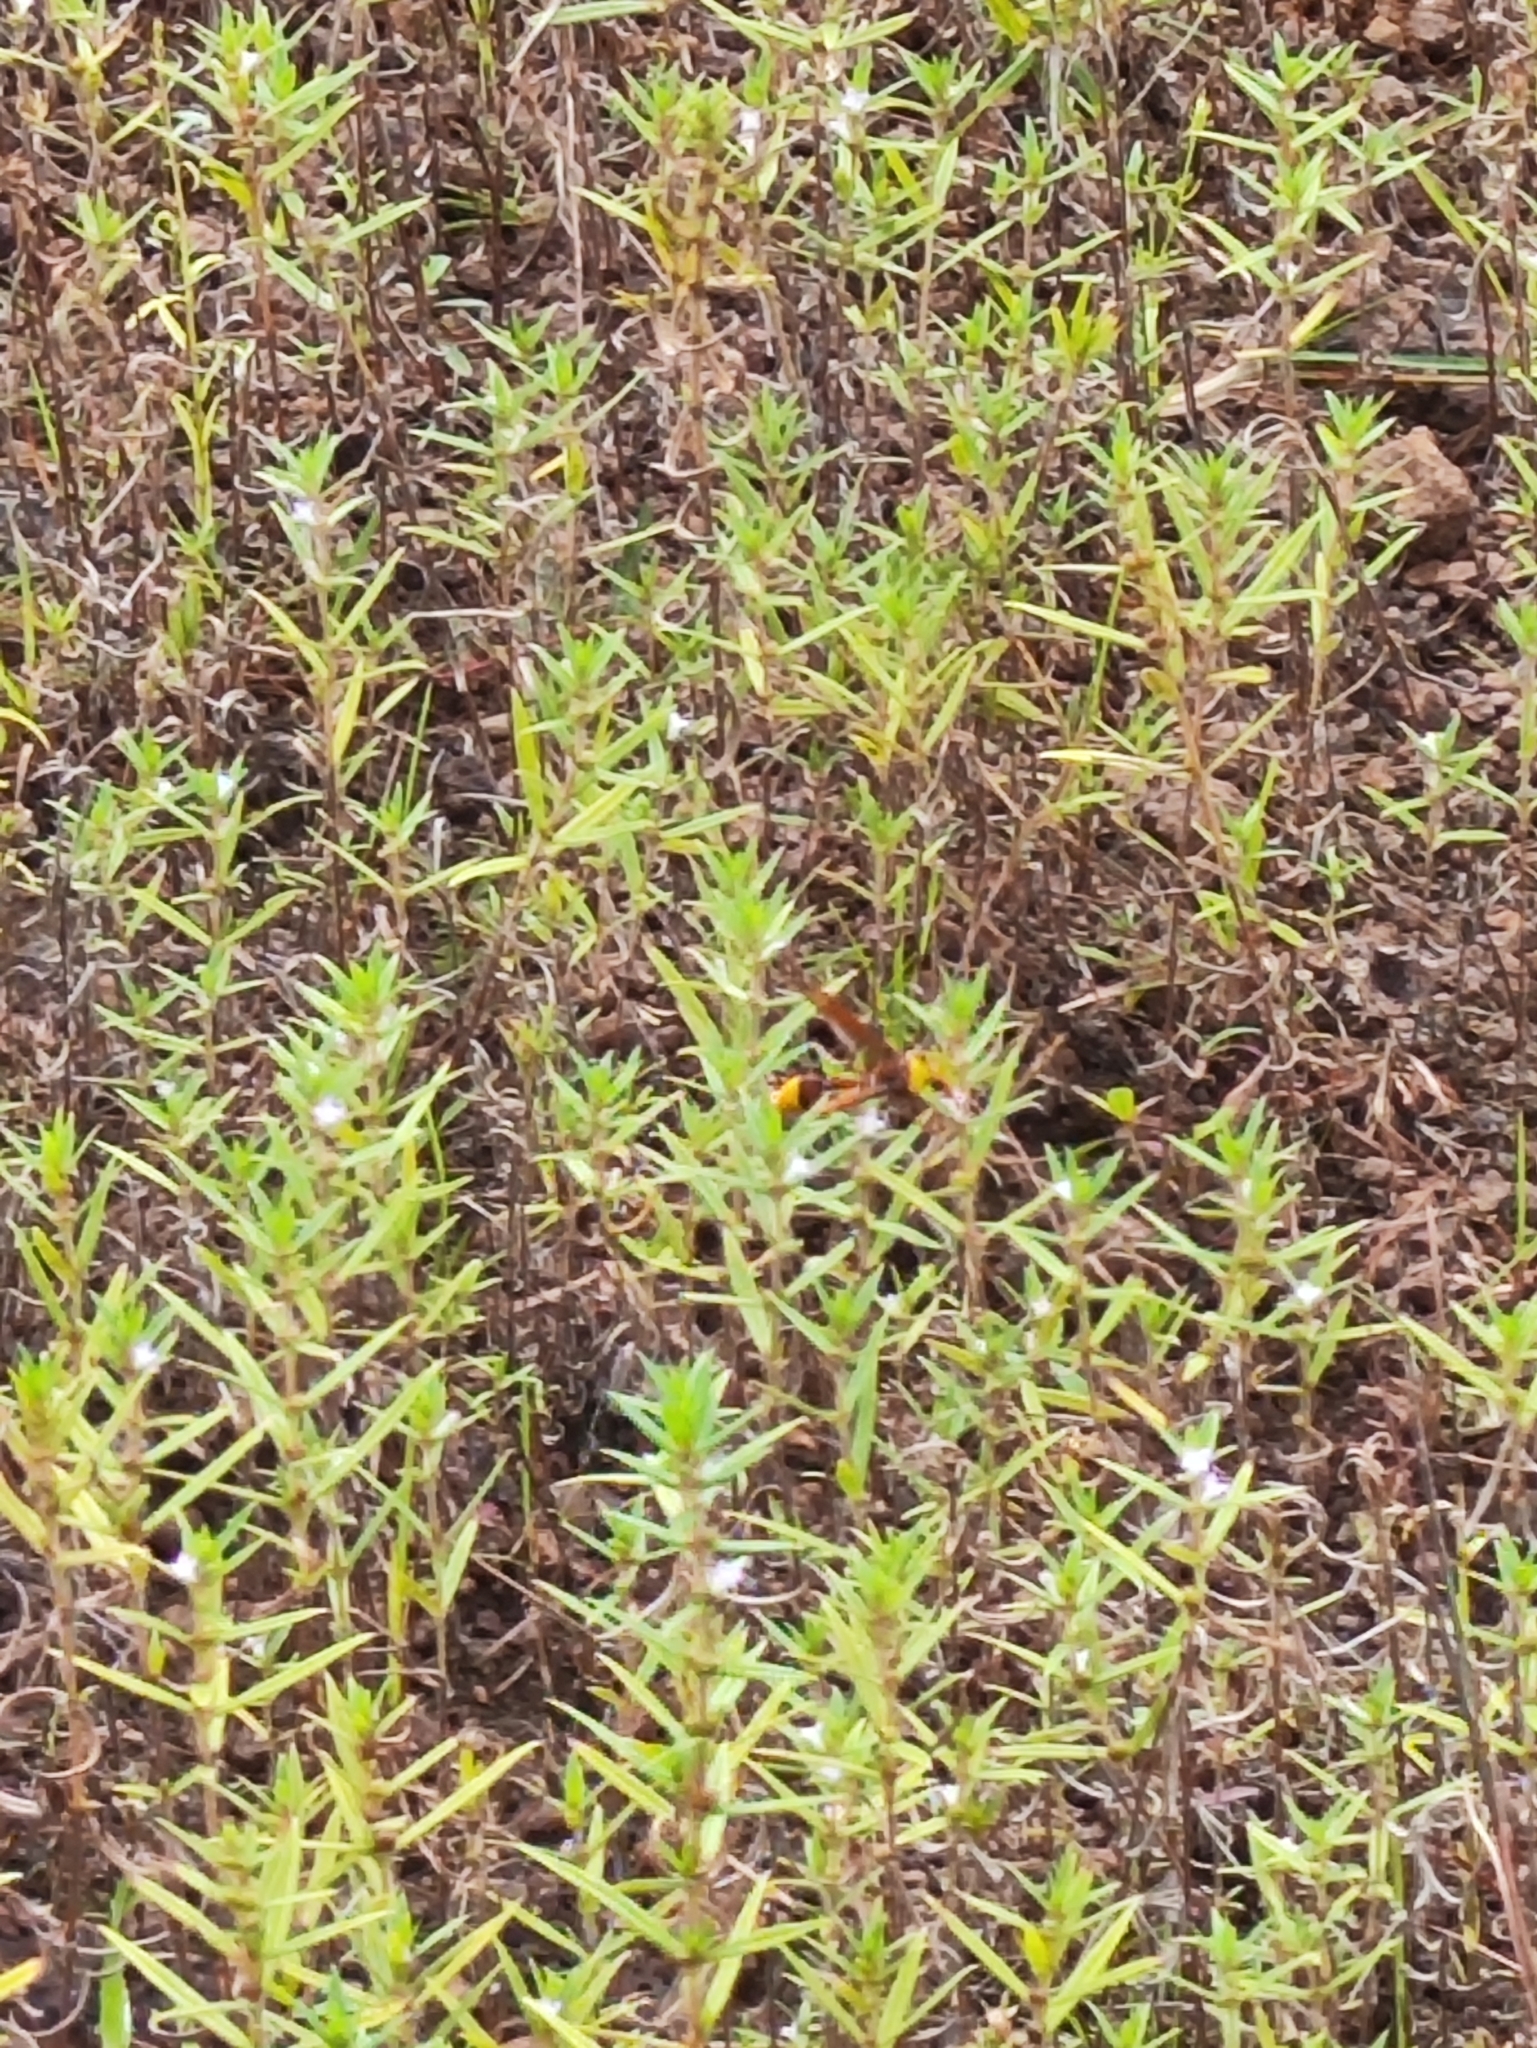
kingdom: Animalia
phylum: Arthropoda
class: Insecta
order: Hymenoptera
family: Eumenidae
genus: Delta
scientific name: Delta pyriforme
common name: Wasp
